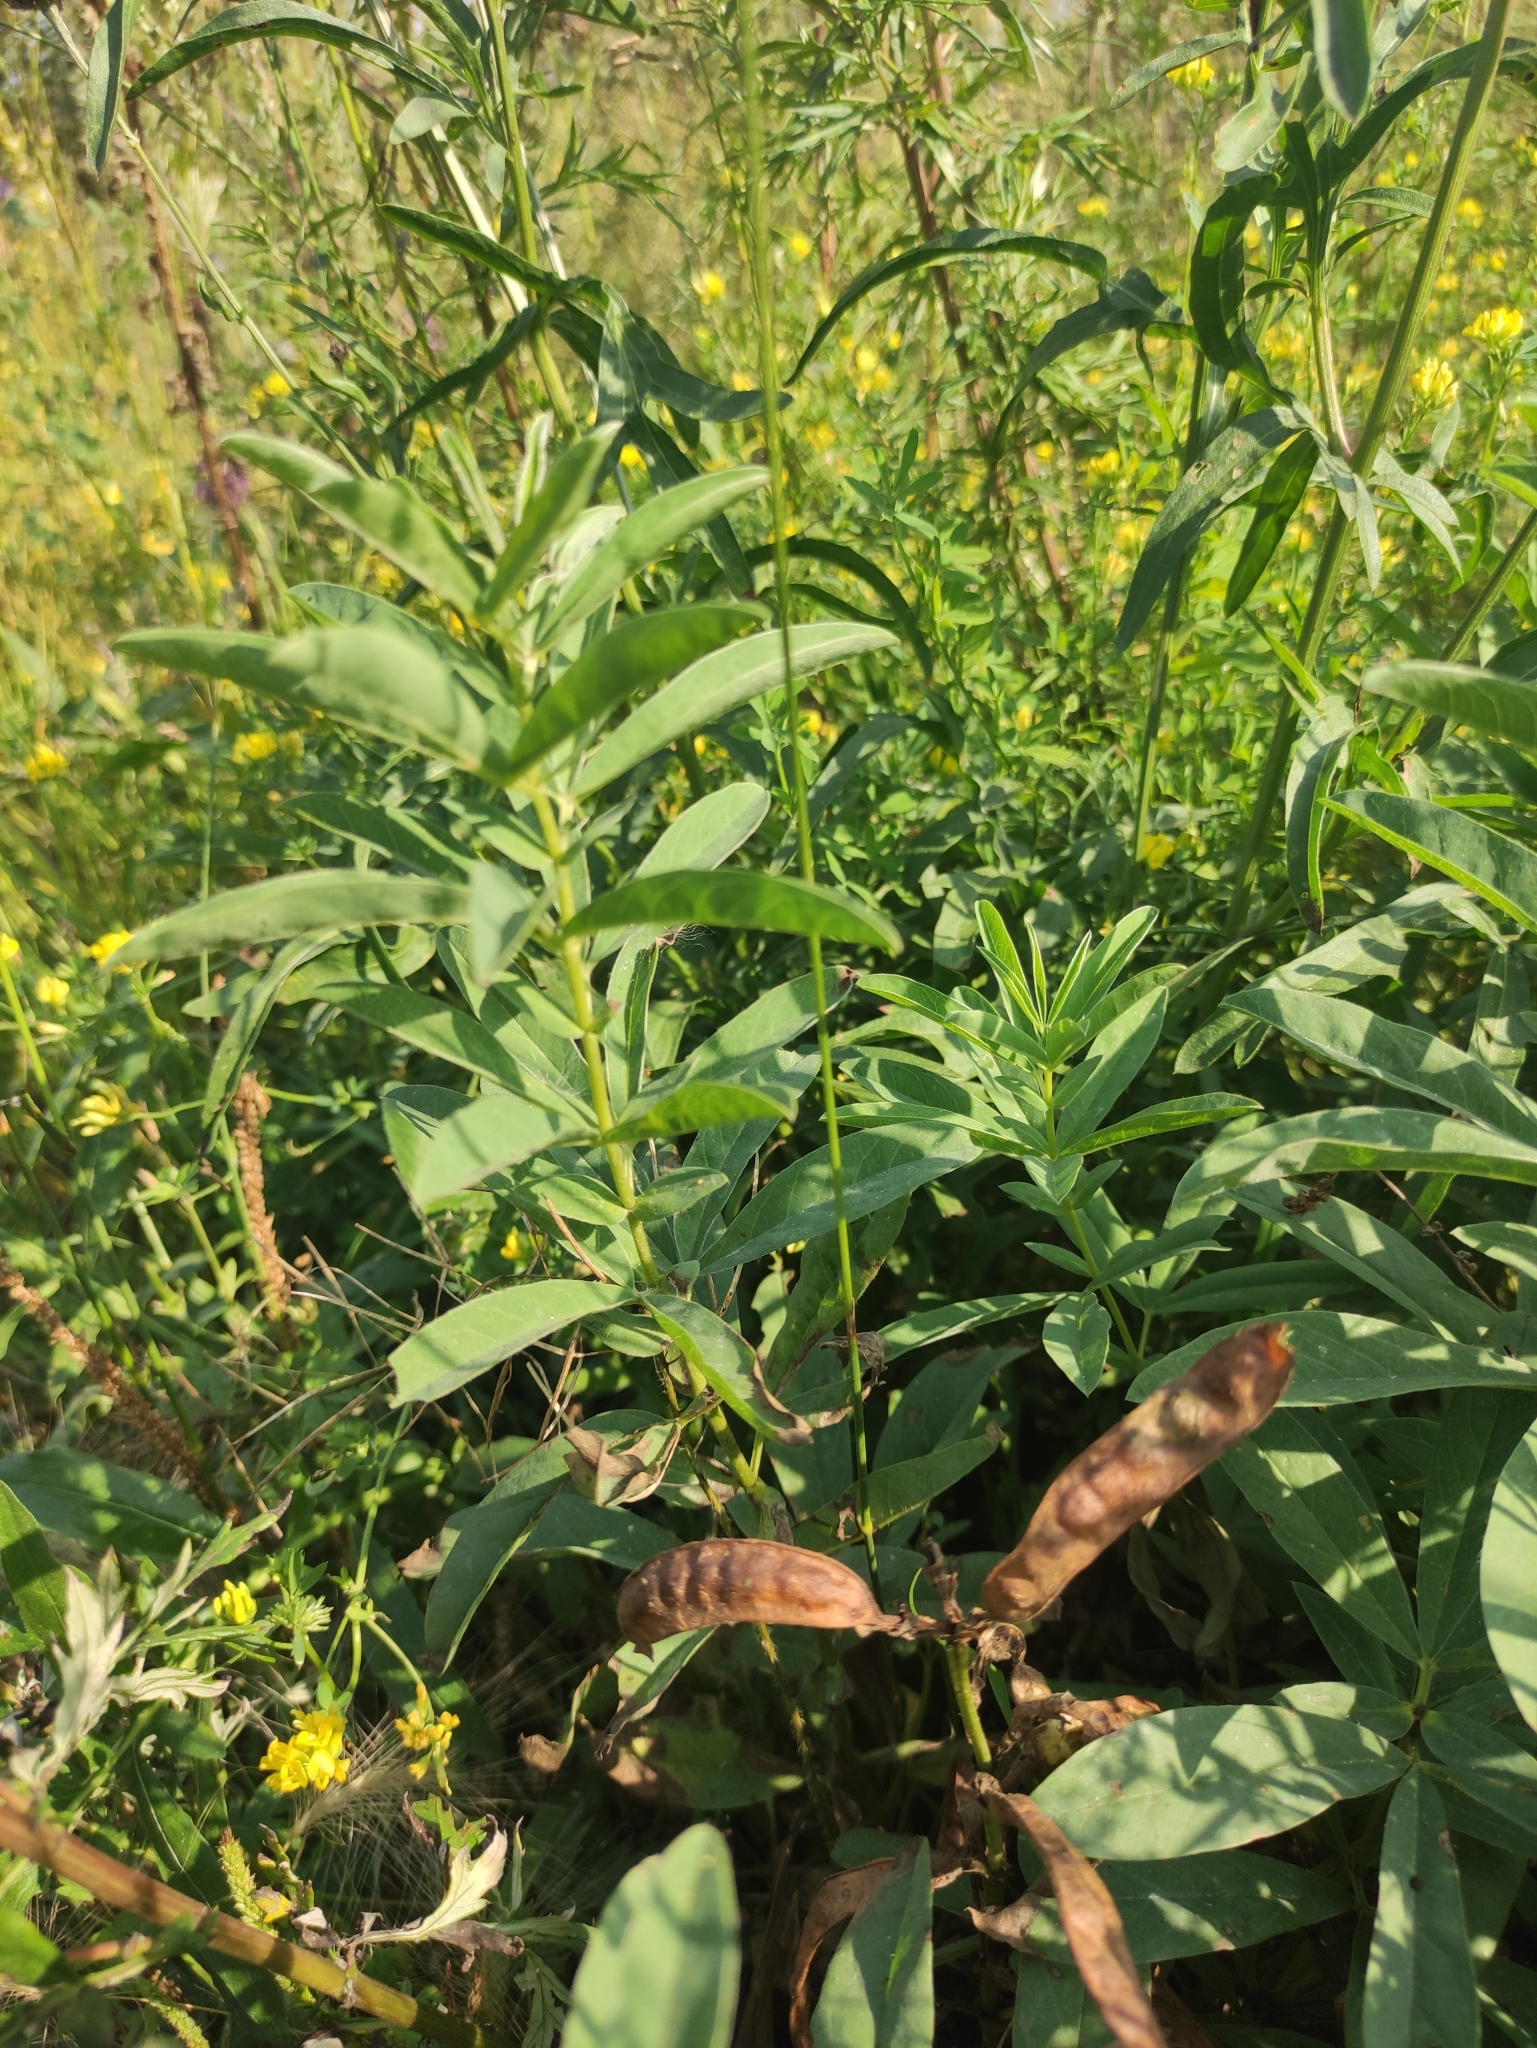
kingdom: Plantae
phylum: Tracheophyta
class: Magnoliopsida
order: Fabales
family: Fabaceae
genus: Thermopsis
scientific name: Thermopsis lanceolata
